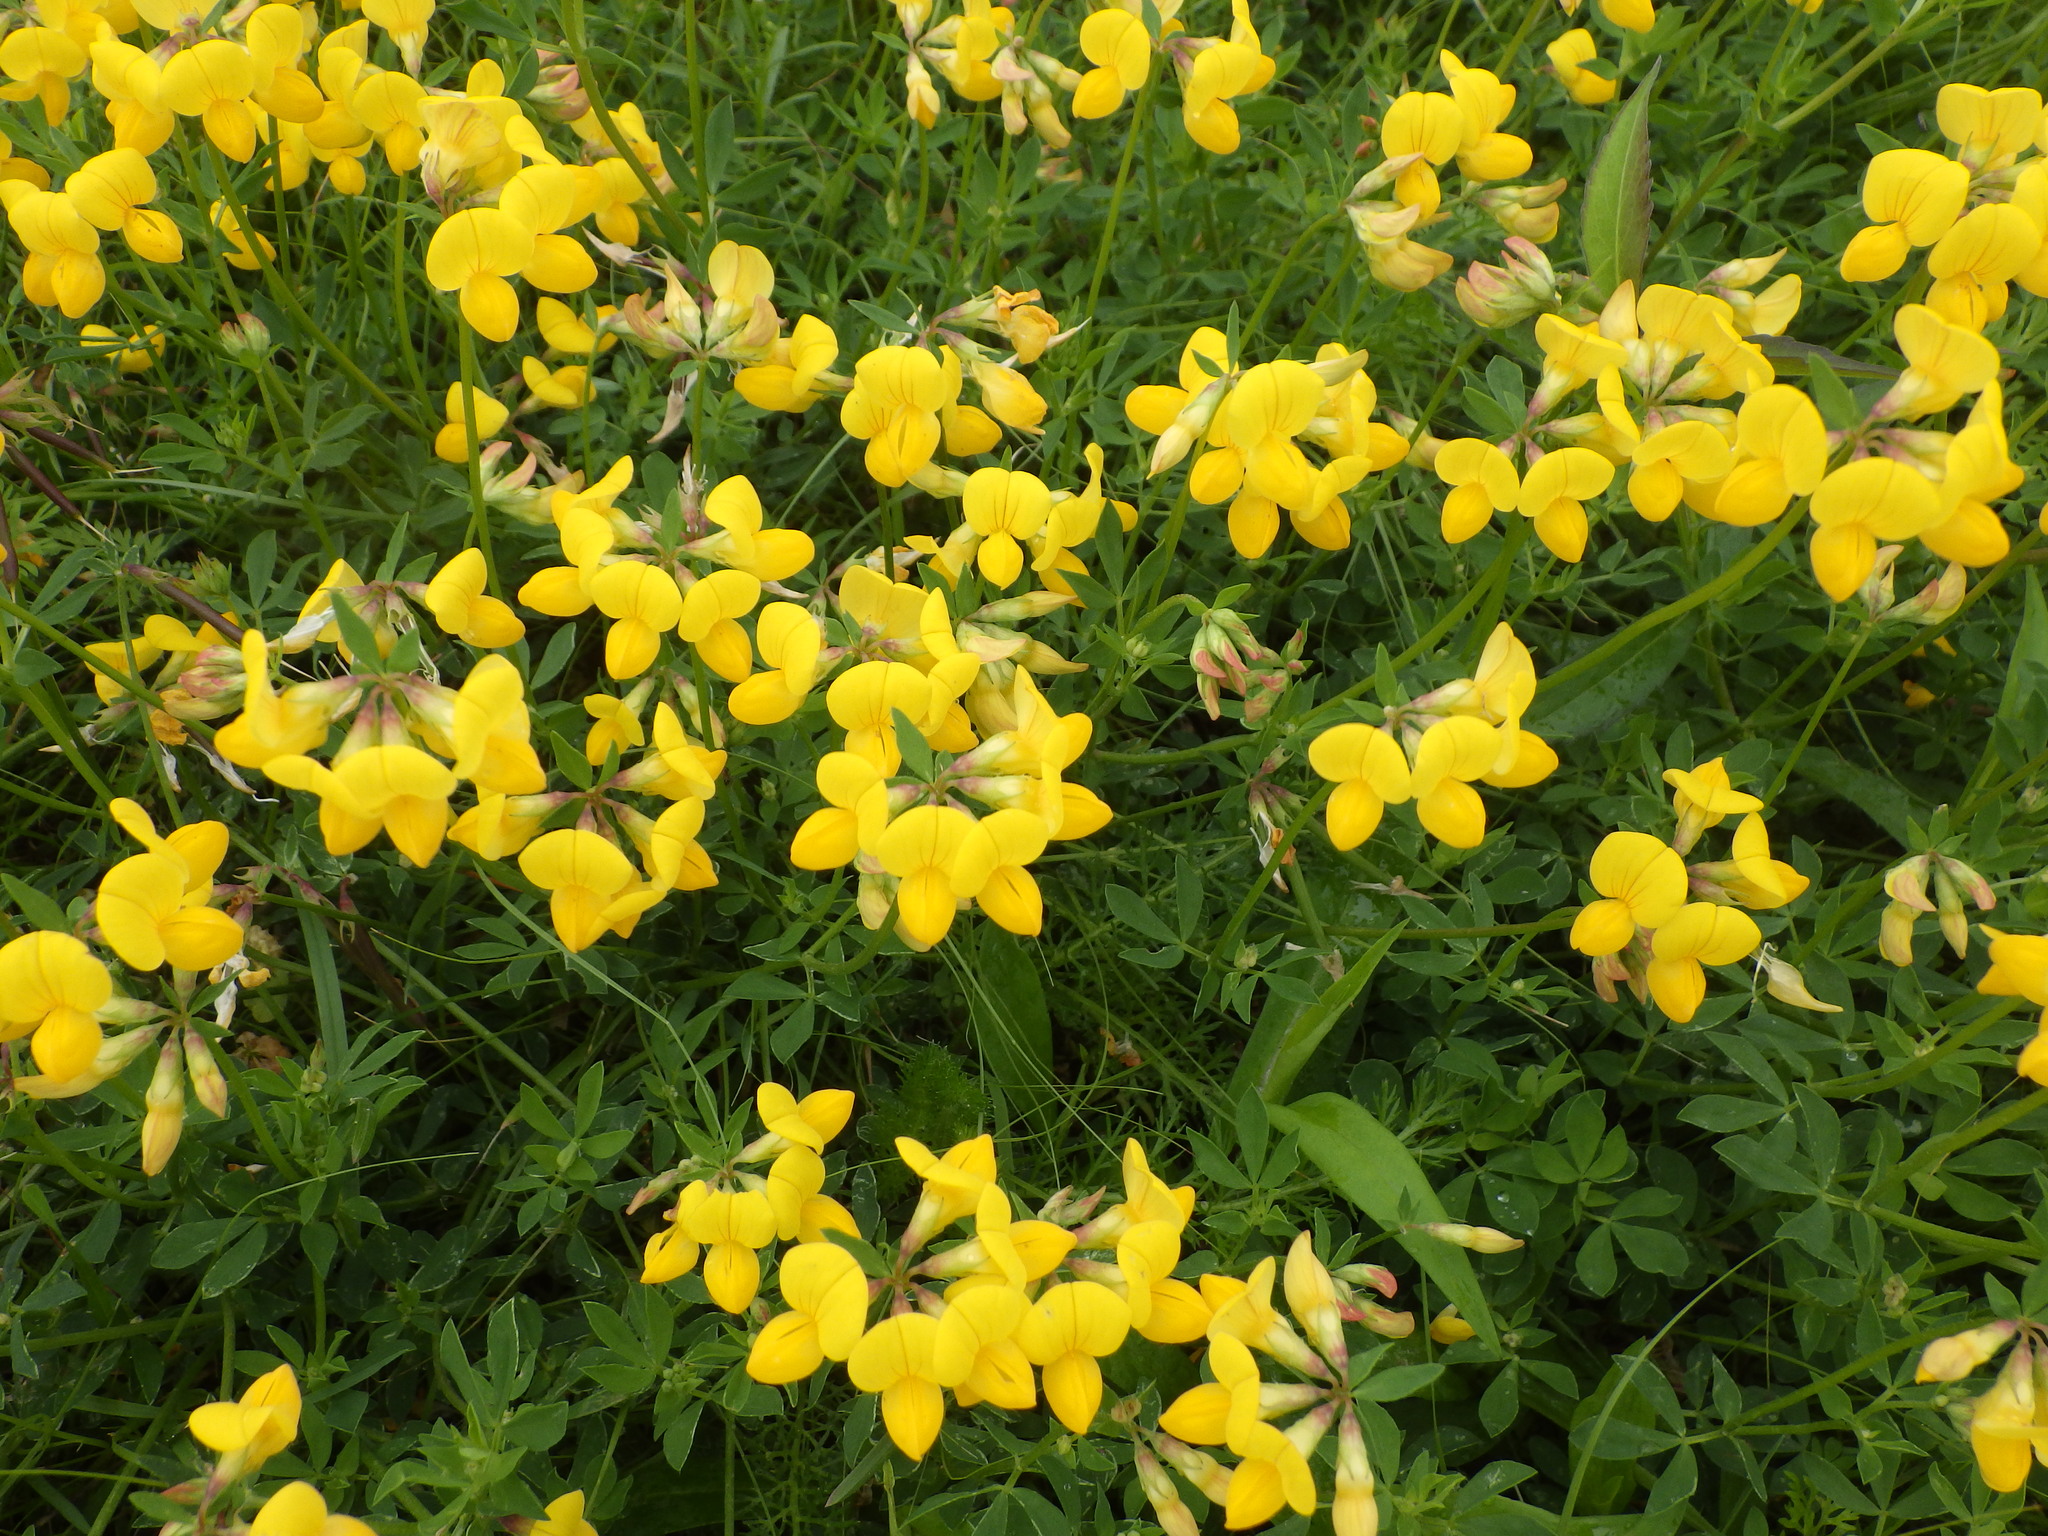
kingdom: Plantae
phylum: Tracheophyta
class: Magnoliopsida
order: Fabales
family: Fabaceae
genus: Lotus
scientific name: Lotus corniculatus
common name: Common bird's-foot-trefoil
